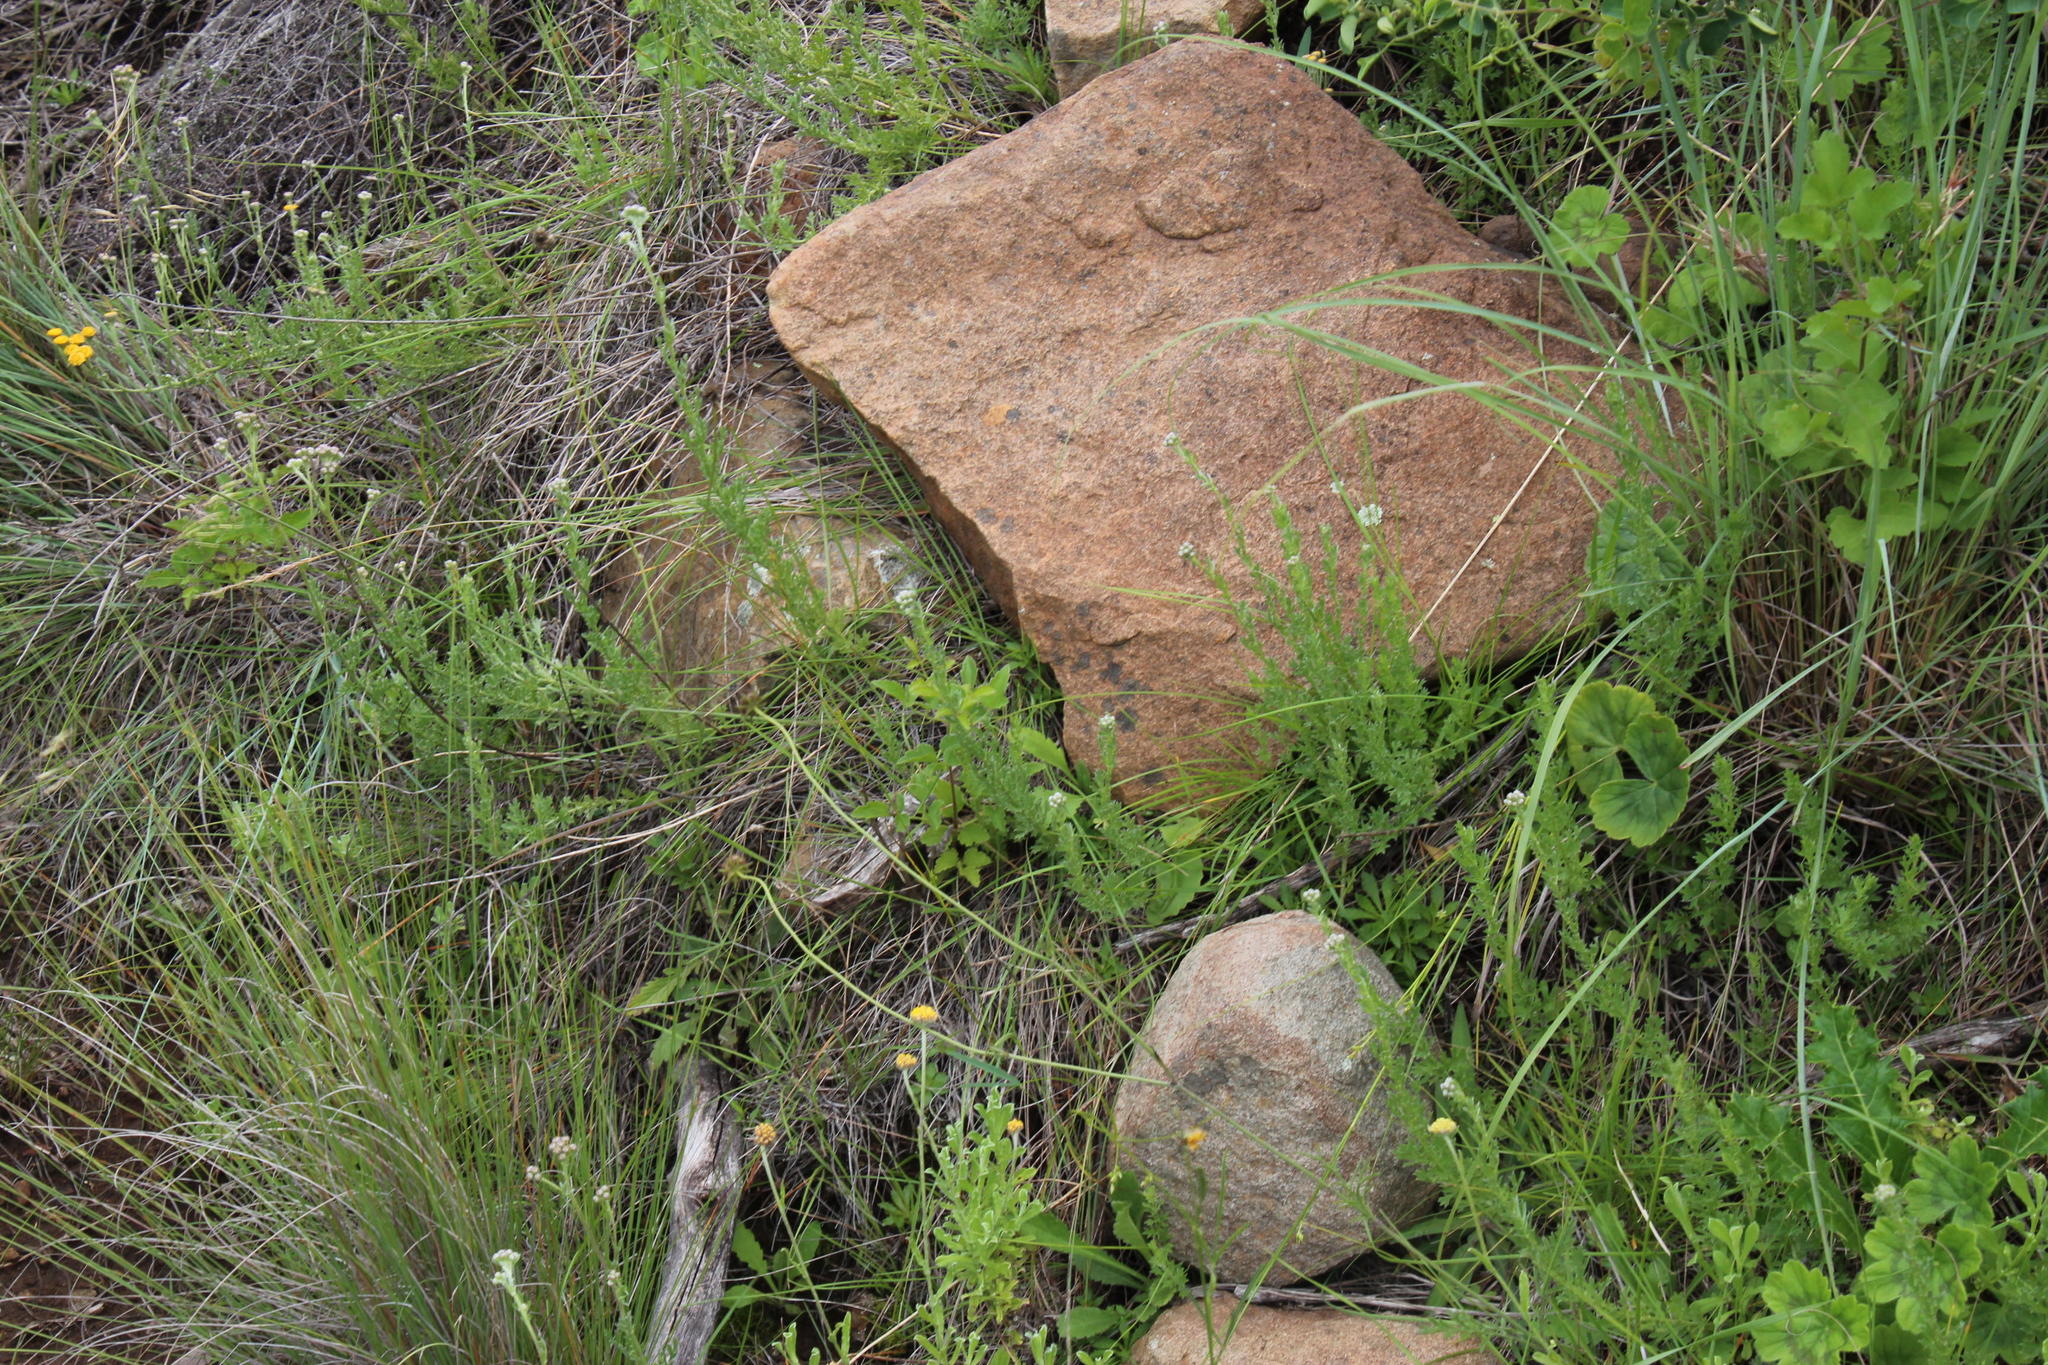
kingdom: Plantae
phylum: Tracheophyta
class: Magnoliopsida
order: Asterales
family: Asteraceae
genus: Schistostephium
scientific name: Schistostephium crataegifolium
